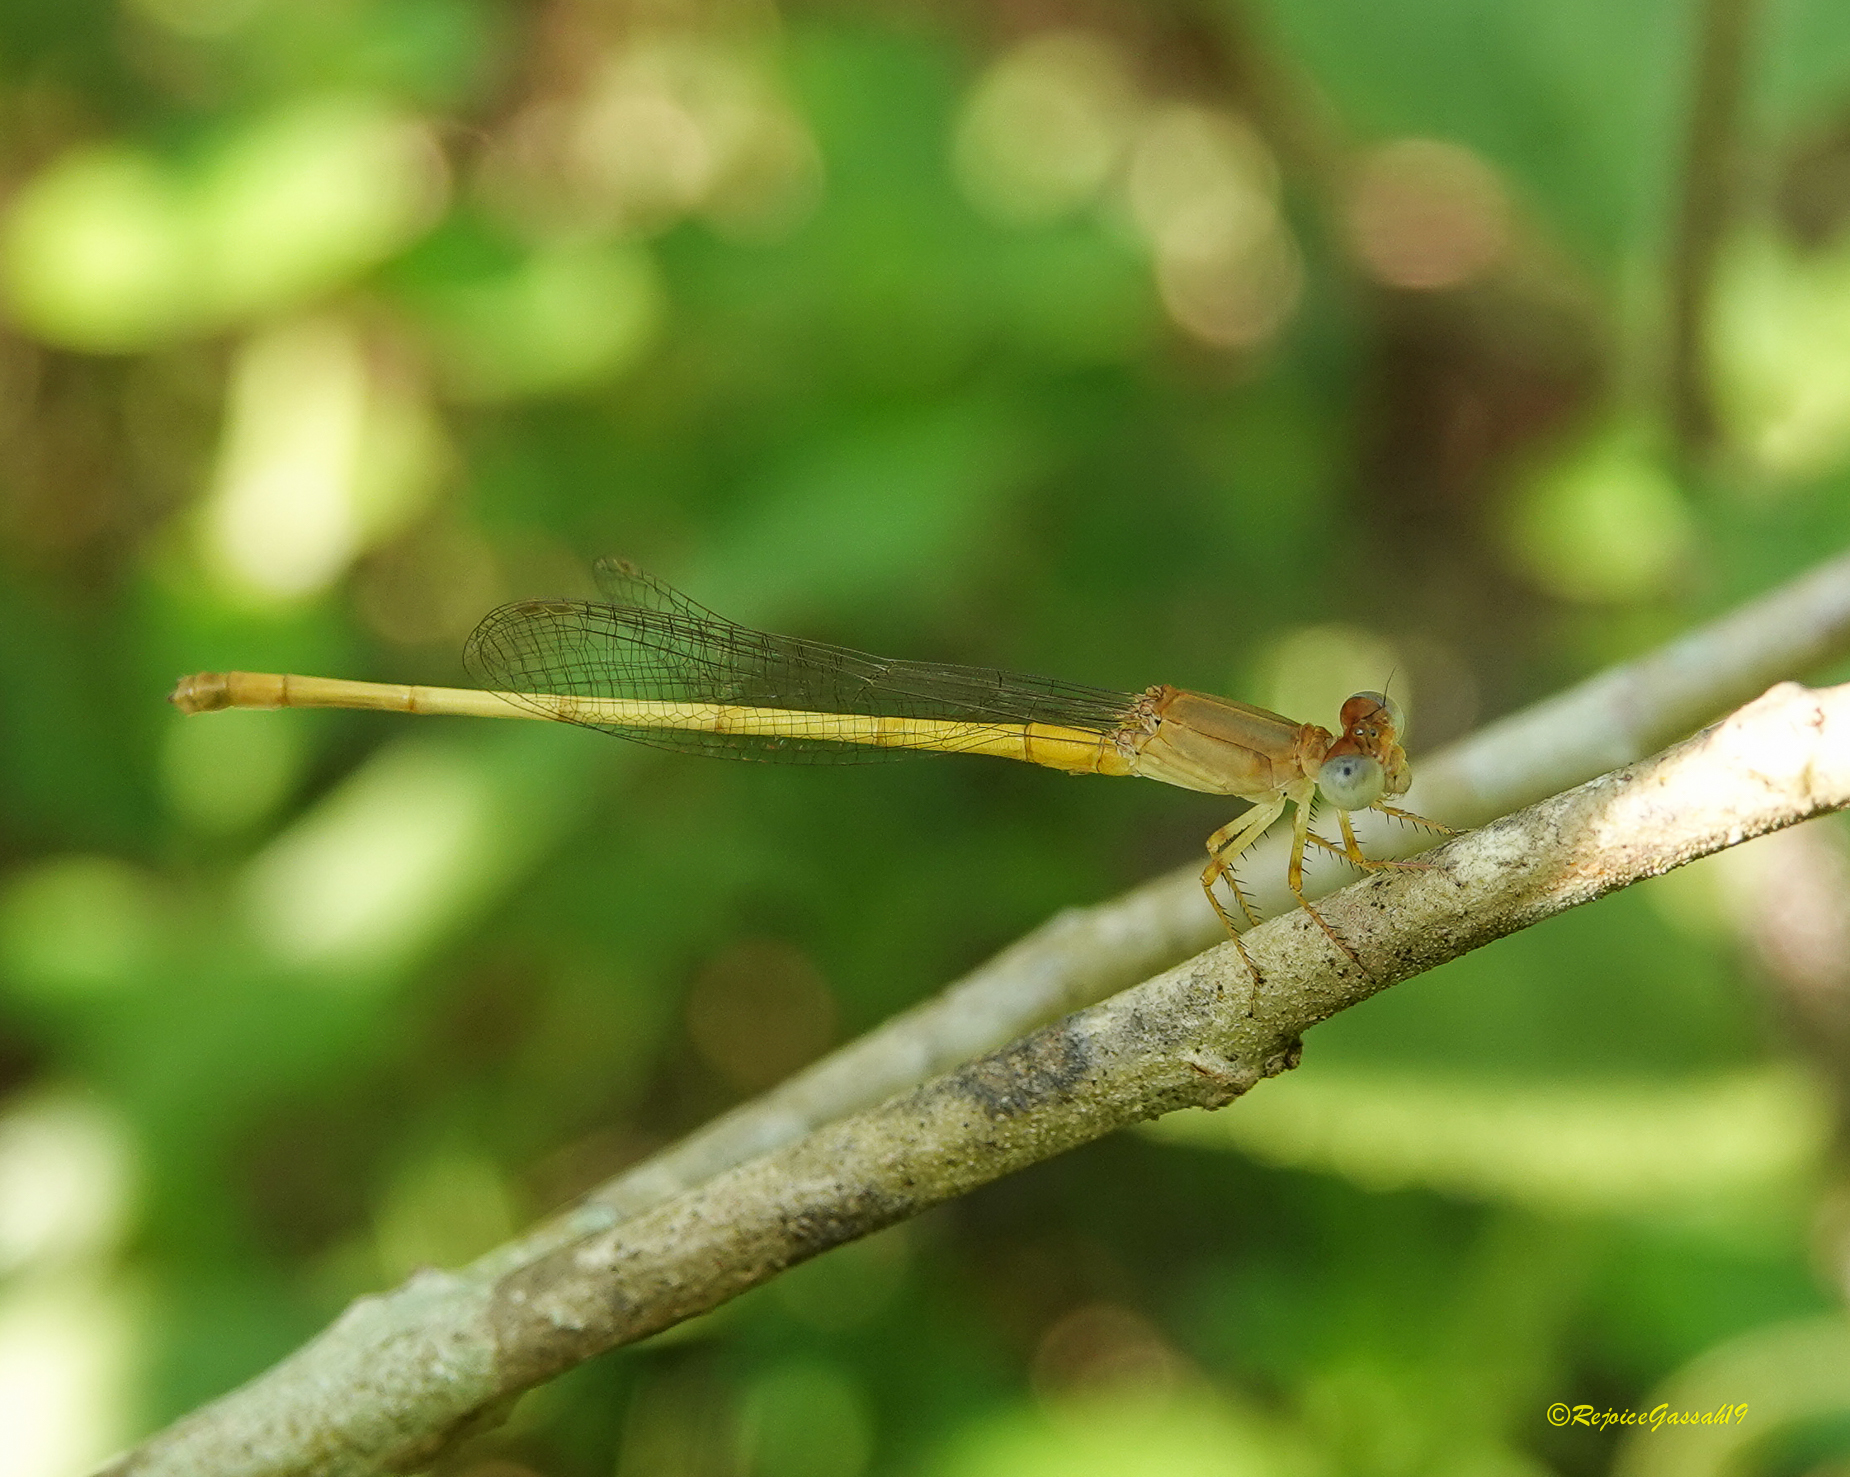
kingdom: Animalia
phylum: Arthropoda
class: Insecta
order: Odonata
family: Coenagrionidae
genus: Ceriagrion
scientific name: Ceriagrion coromandelianum
